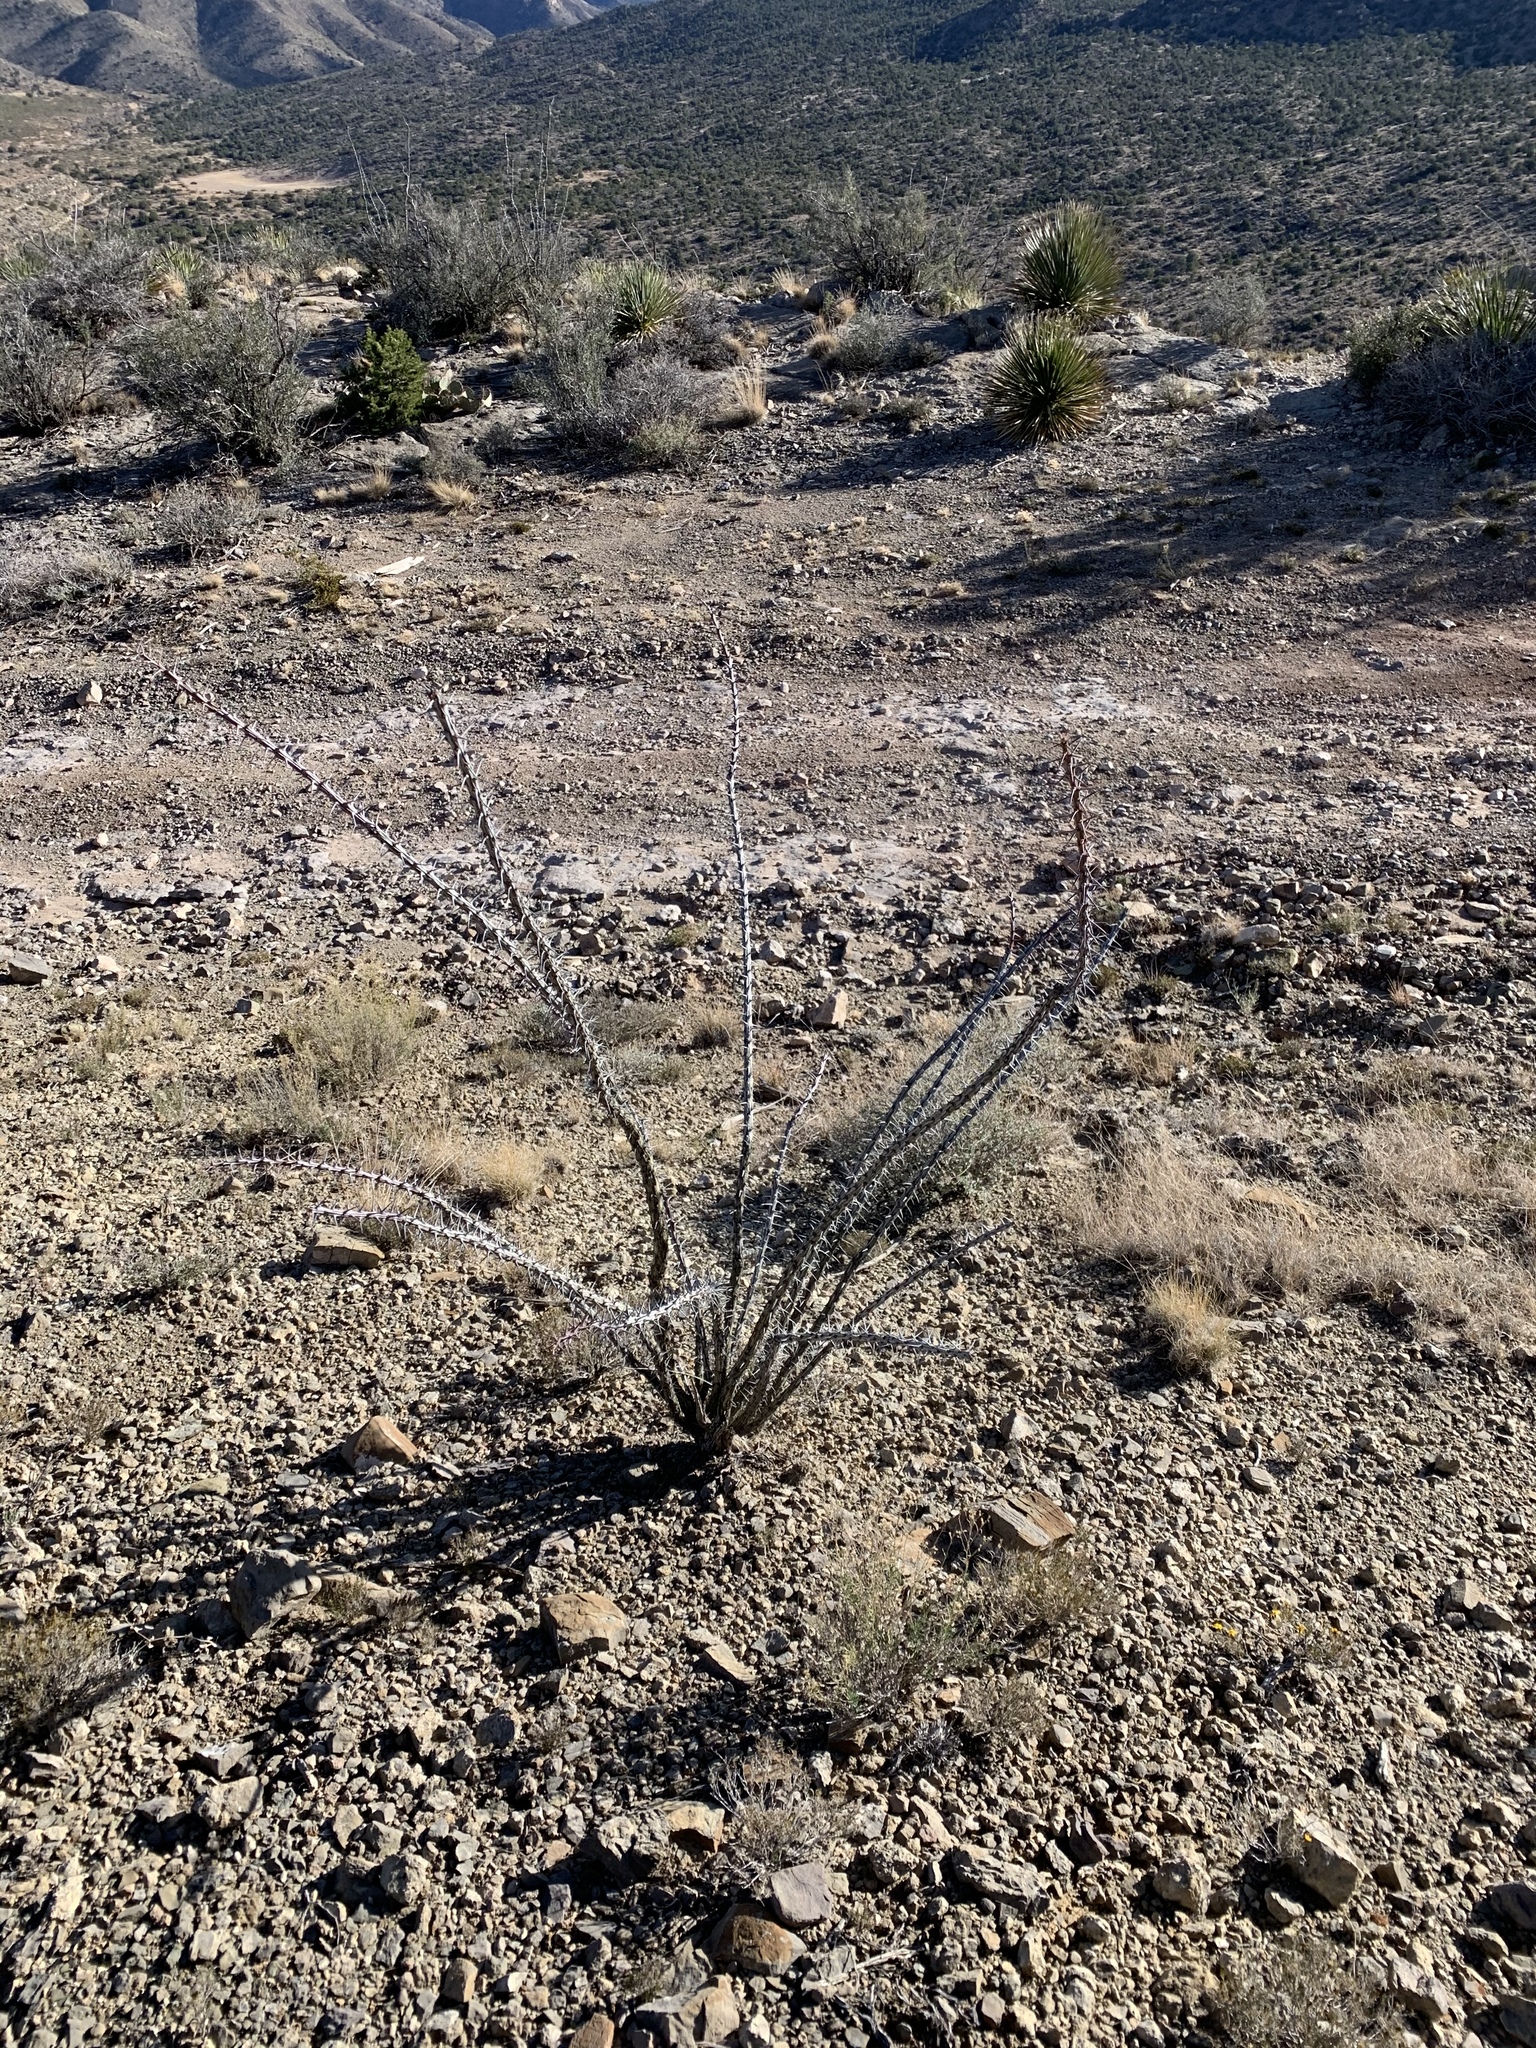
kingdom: Plantae
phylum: Tracheophyta
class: Magnoliopsida
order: Ericales
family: Fouquieriaceae
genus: Fouquieria
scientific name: Fouquieria splendens
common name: Vine-cactus
